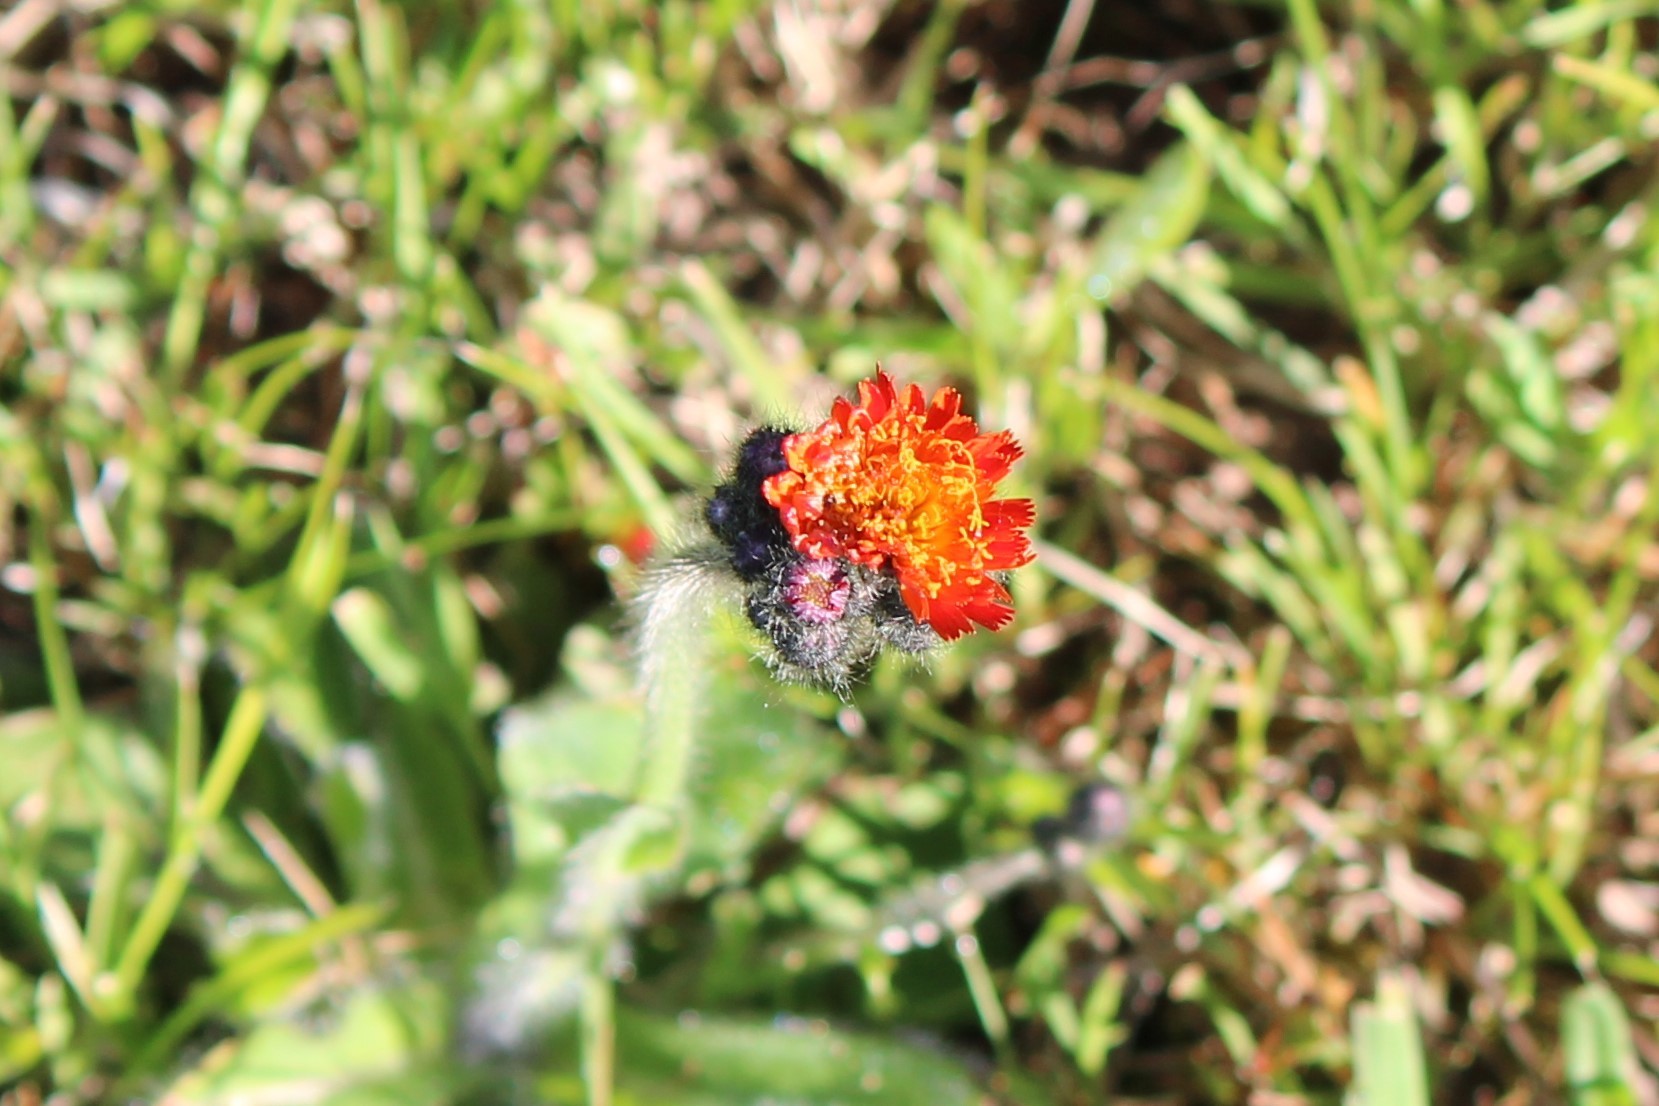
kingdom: Plantae
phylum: Tracheophyta
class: Magnoliopsida
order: Asterales
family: Asteraceae
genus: Pilosella
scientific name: Pilosella aurantiaca
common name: Fox-and-cubs
